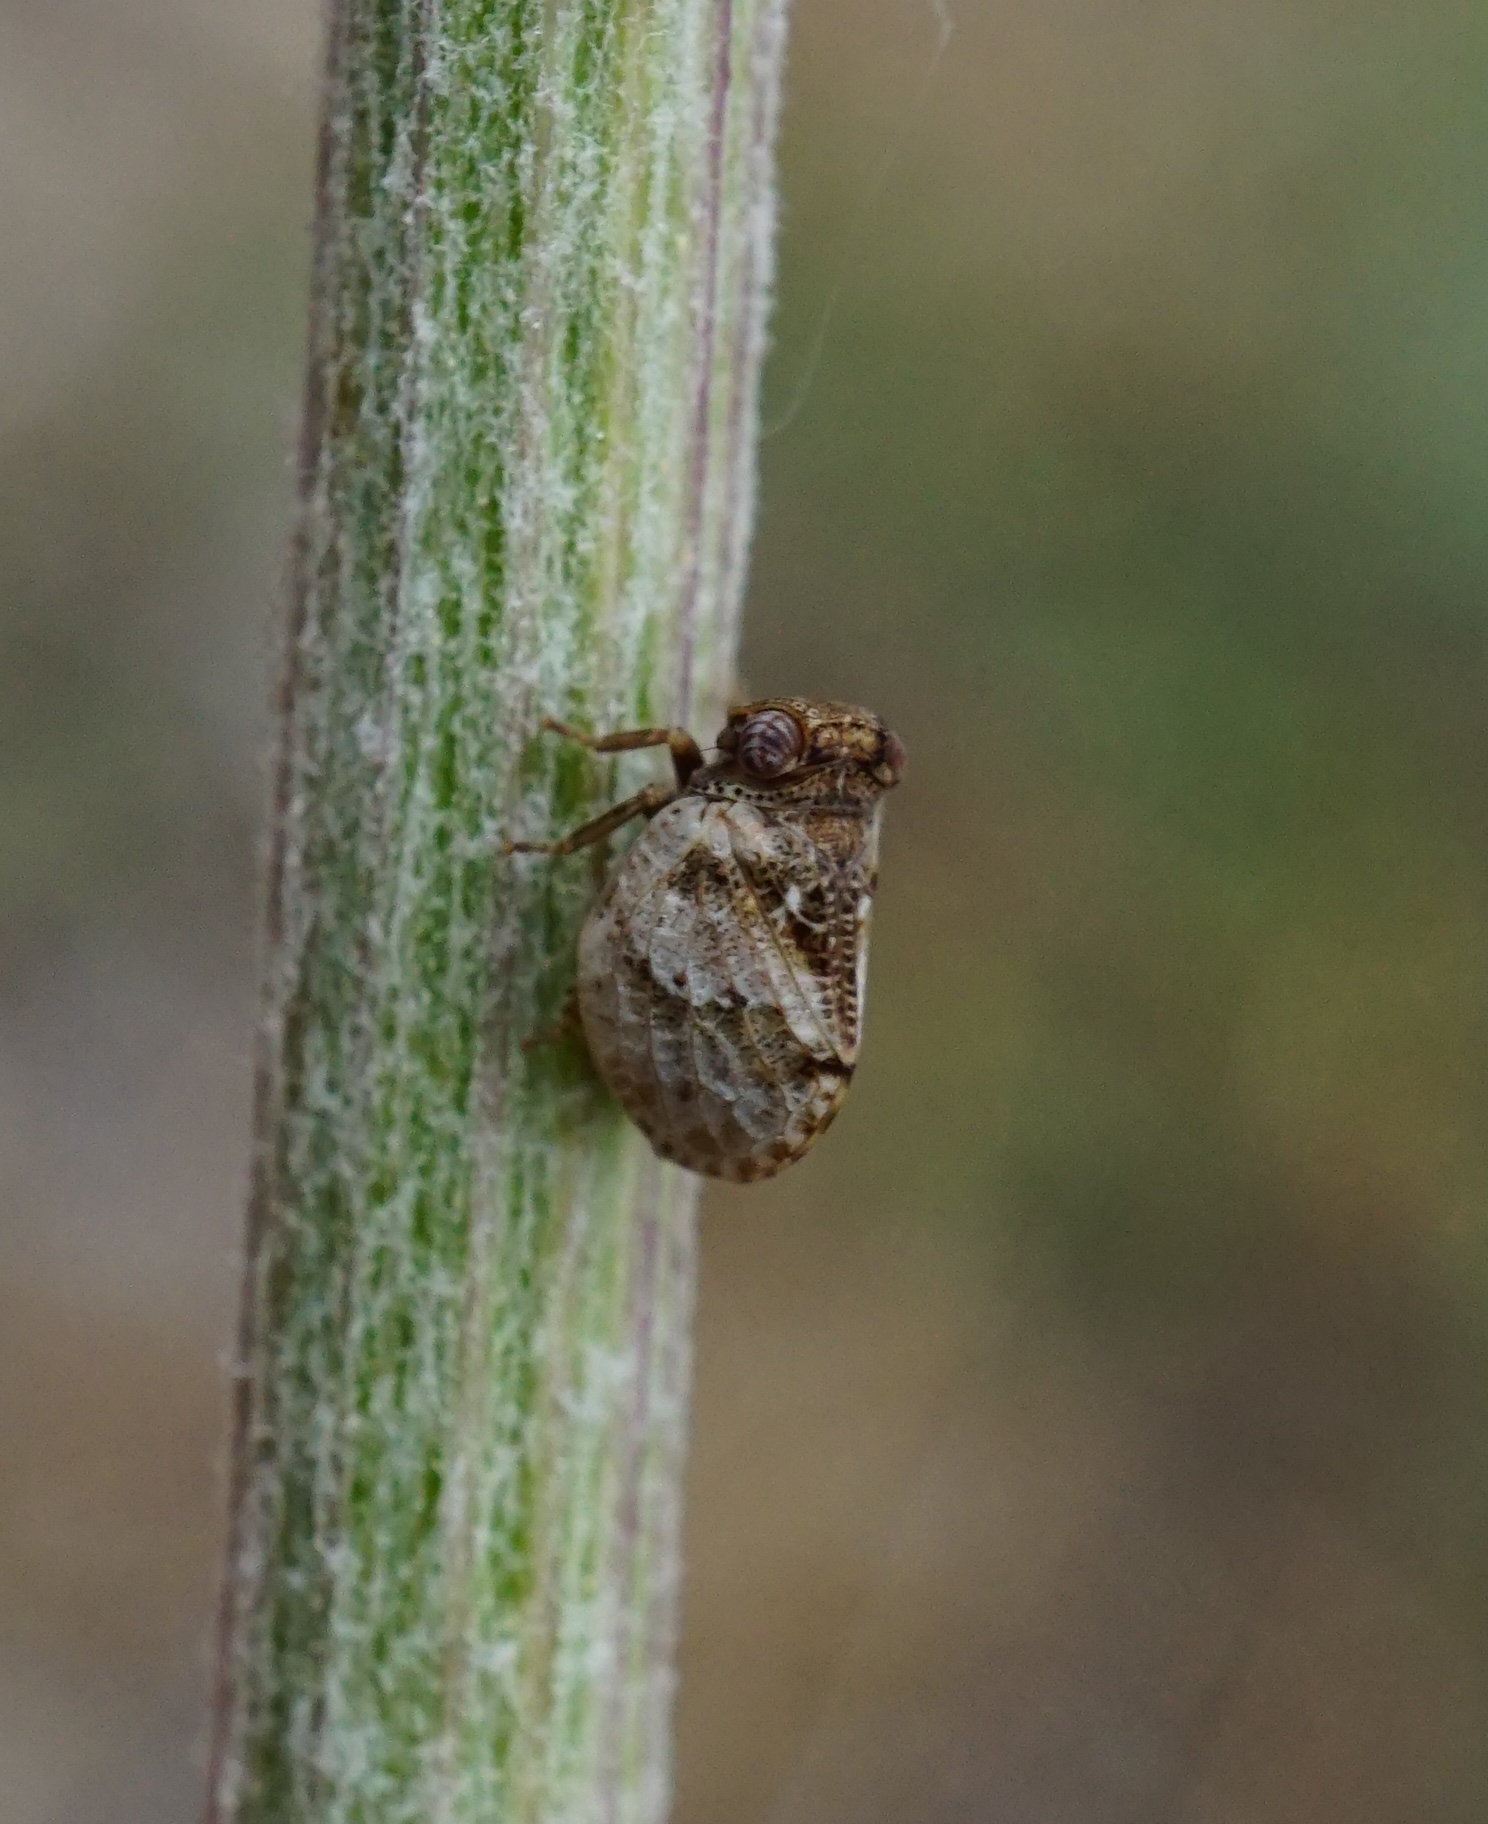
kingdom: Animalia
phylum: Arthropoda
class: Insecta
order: Hemiptera
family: Issidae
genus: Hysteropterum
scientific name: Hysteropterum reticulatum
